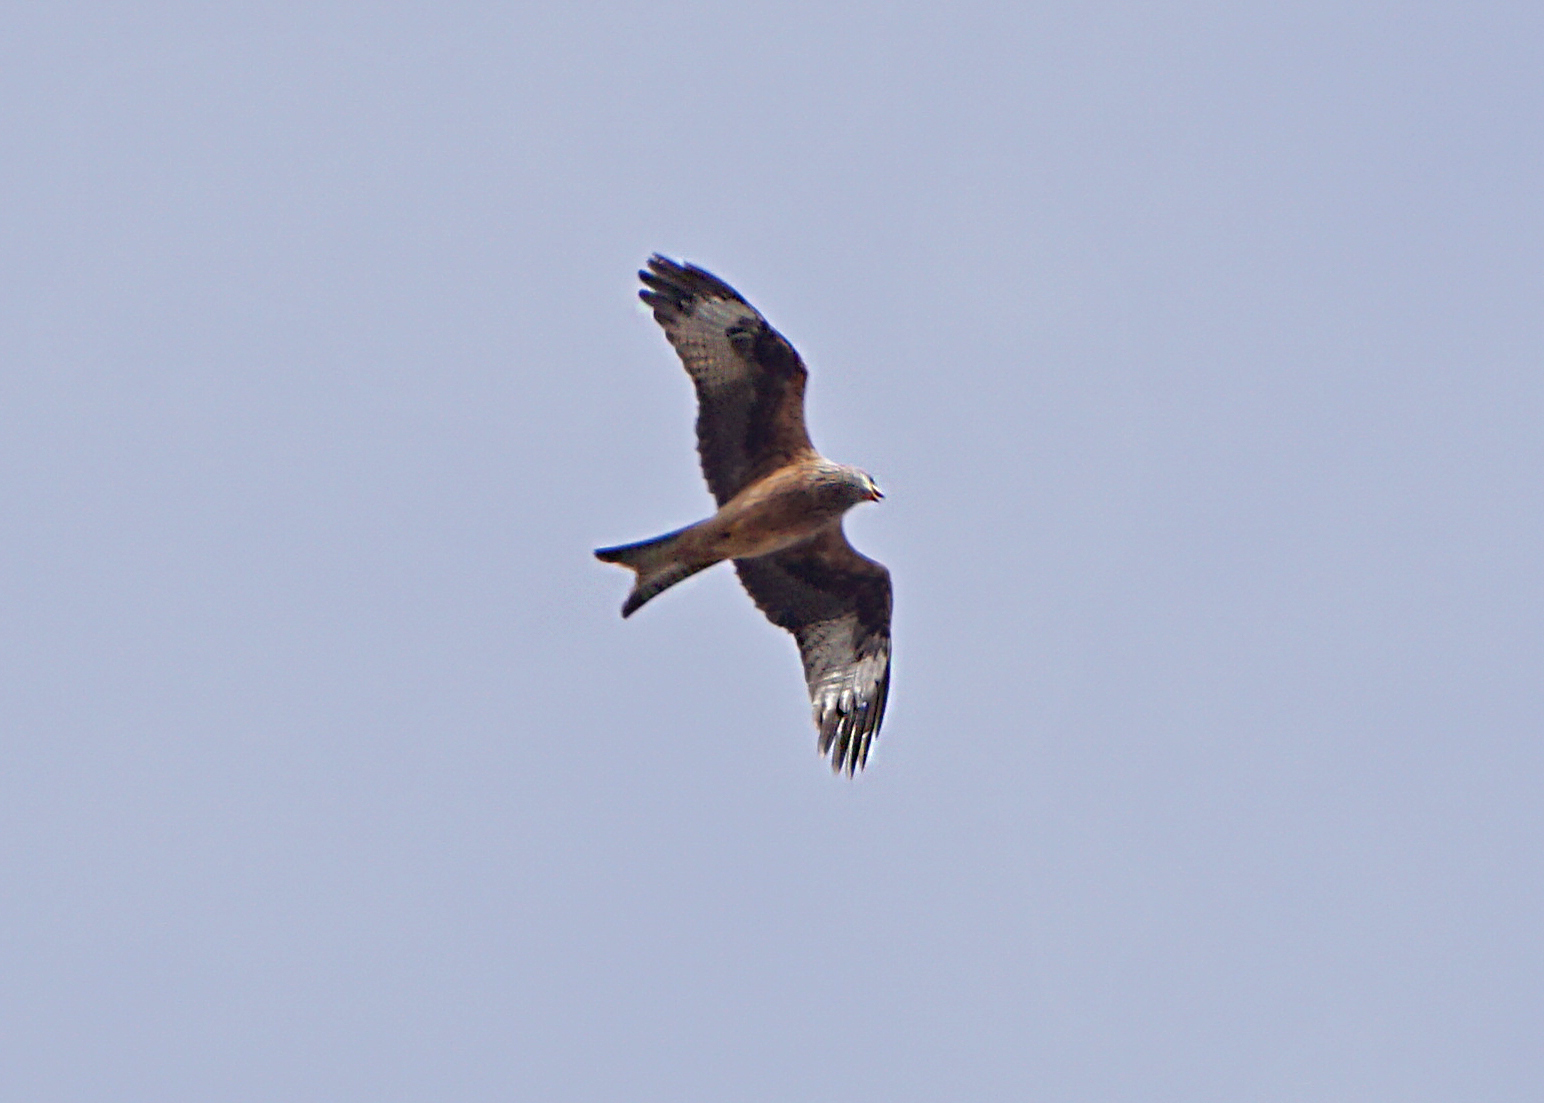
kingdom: Animalia
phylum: Chordata
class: Aves
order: Accipitriformes
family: Accipitridae
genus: Milvus
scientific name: Milvus milvus
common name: Red kite
